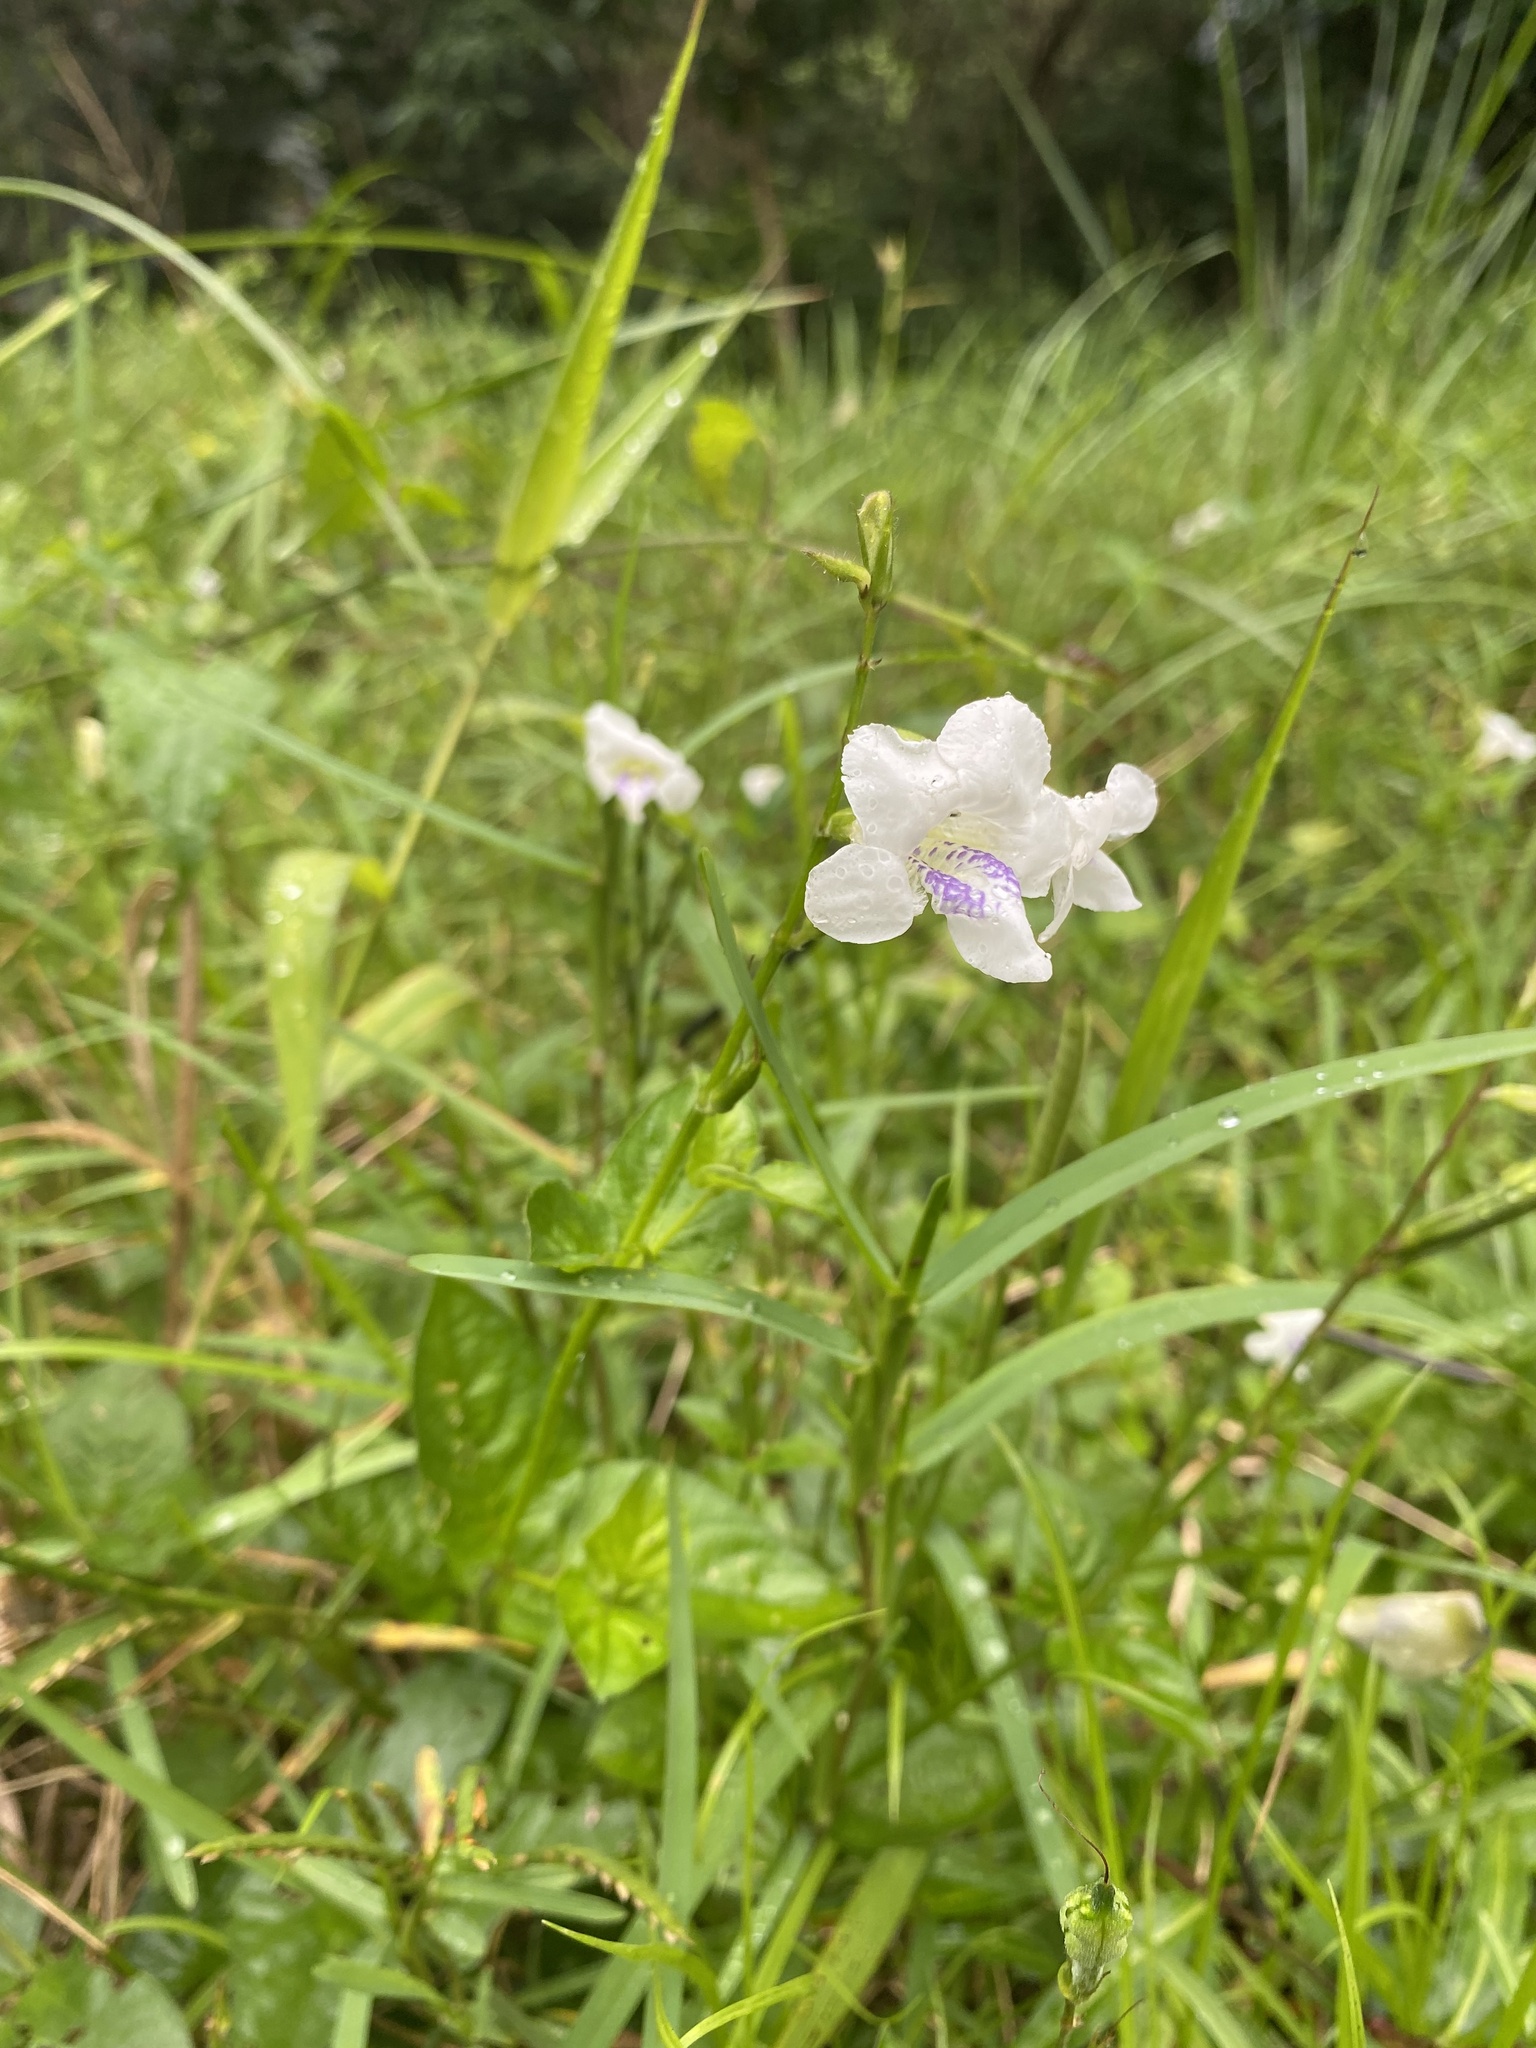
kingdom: Plantae
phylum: Tracheophyta
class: Magnoliopsida
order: Lamiales
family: Acanthaceae
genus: Asystasia
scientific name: Asystasia intrusa
